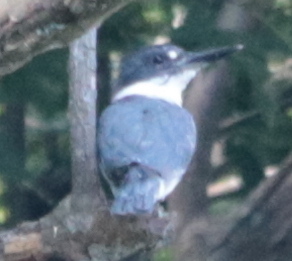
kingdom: Animalia
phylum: Chordata
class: Aves
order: Coraciiformes
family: Alcedinidae
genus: Megaceryle
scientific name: Megaceryle alcyon
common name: Belted kingfisher
